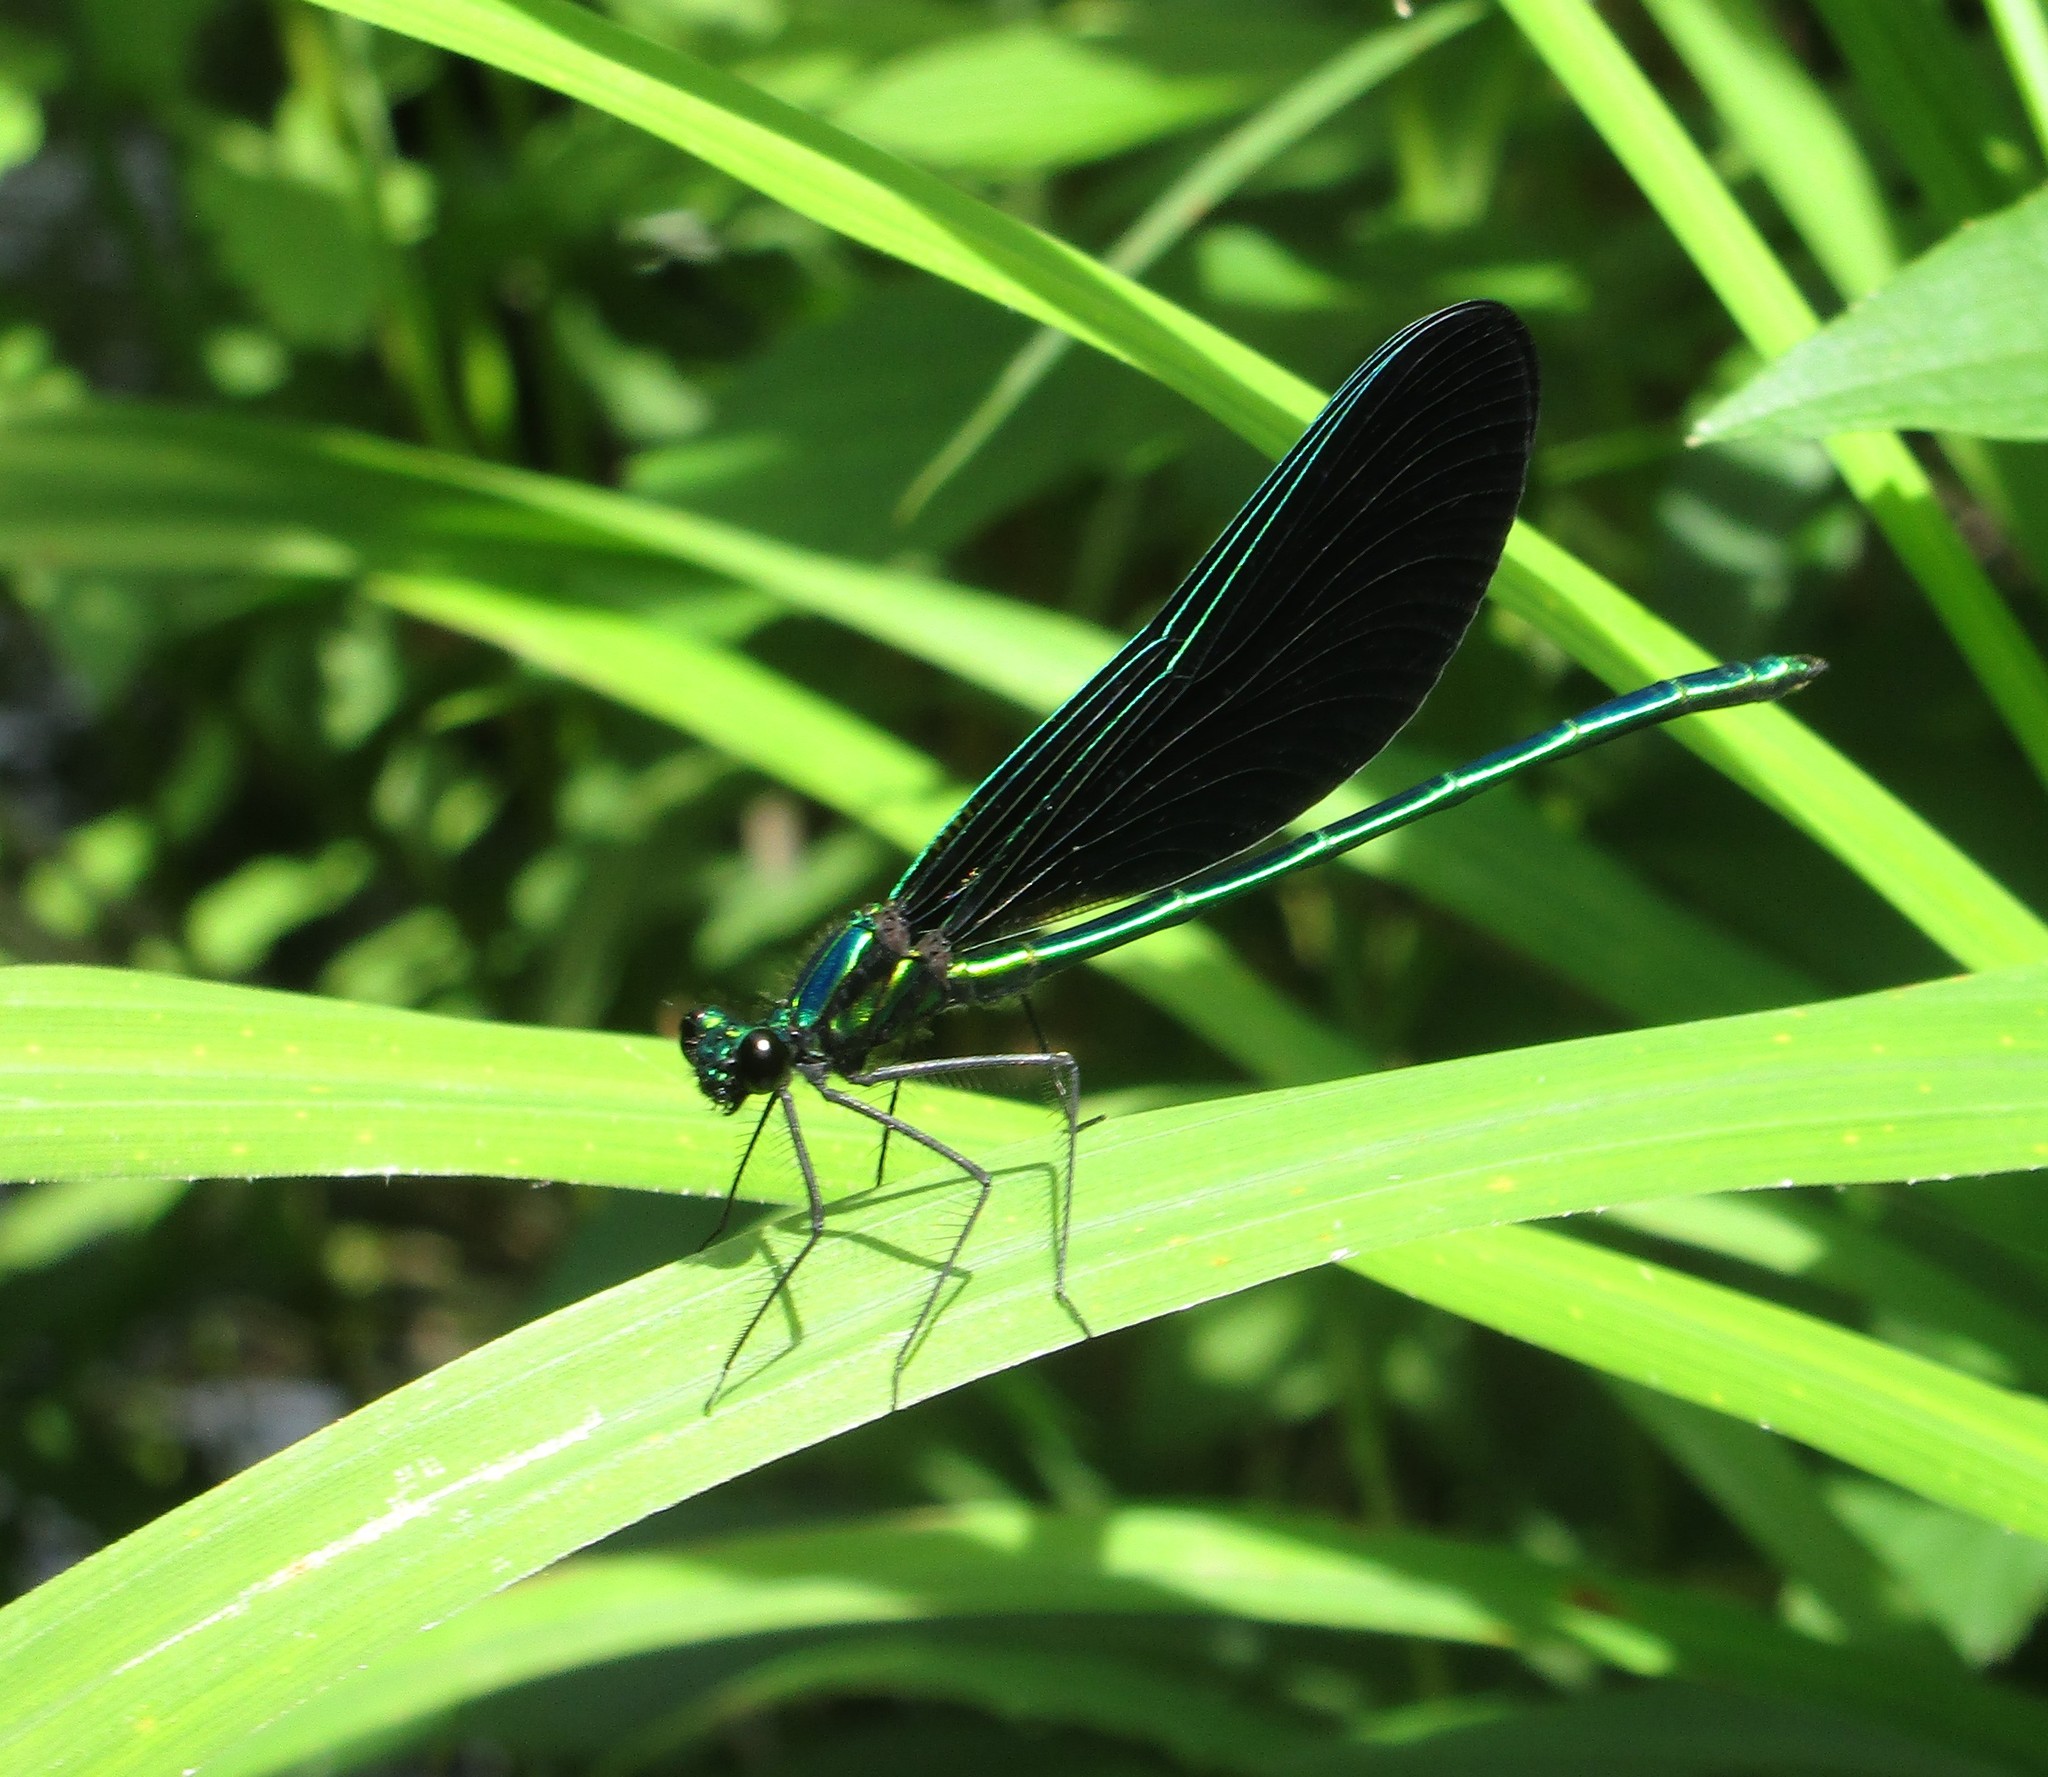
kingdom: Animalia
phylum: Arthropoda
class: Insecta
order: Odonata
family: Calopterygidae
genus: Calopteryx
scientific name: Calopteryx maculata
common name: Ebony jewelwing
